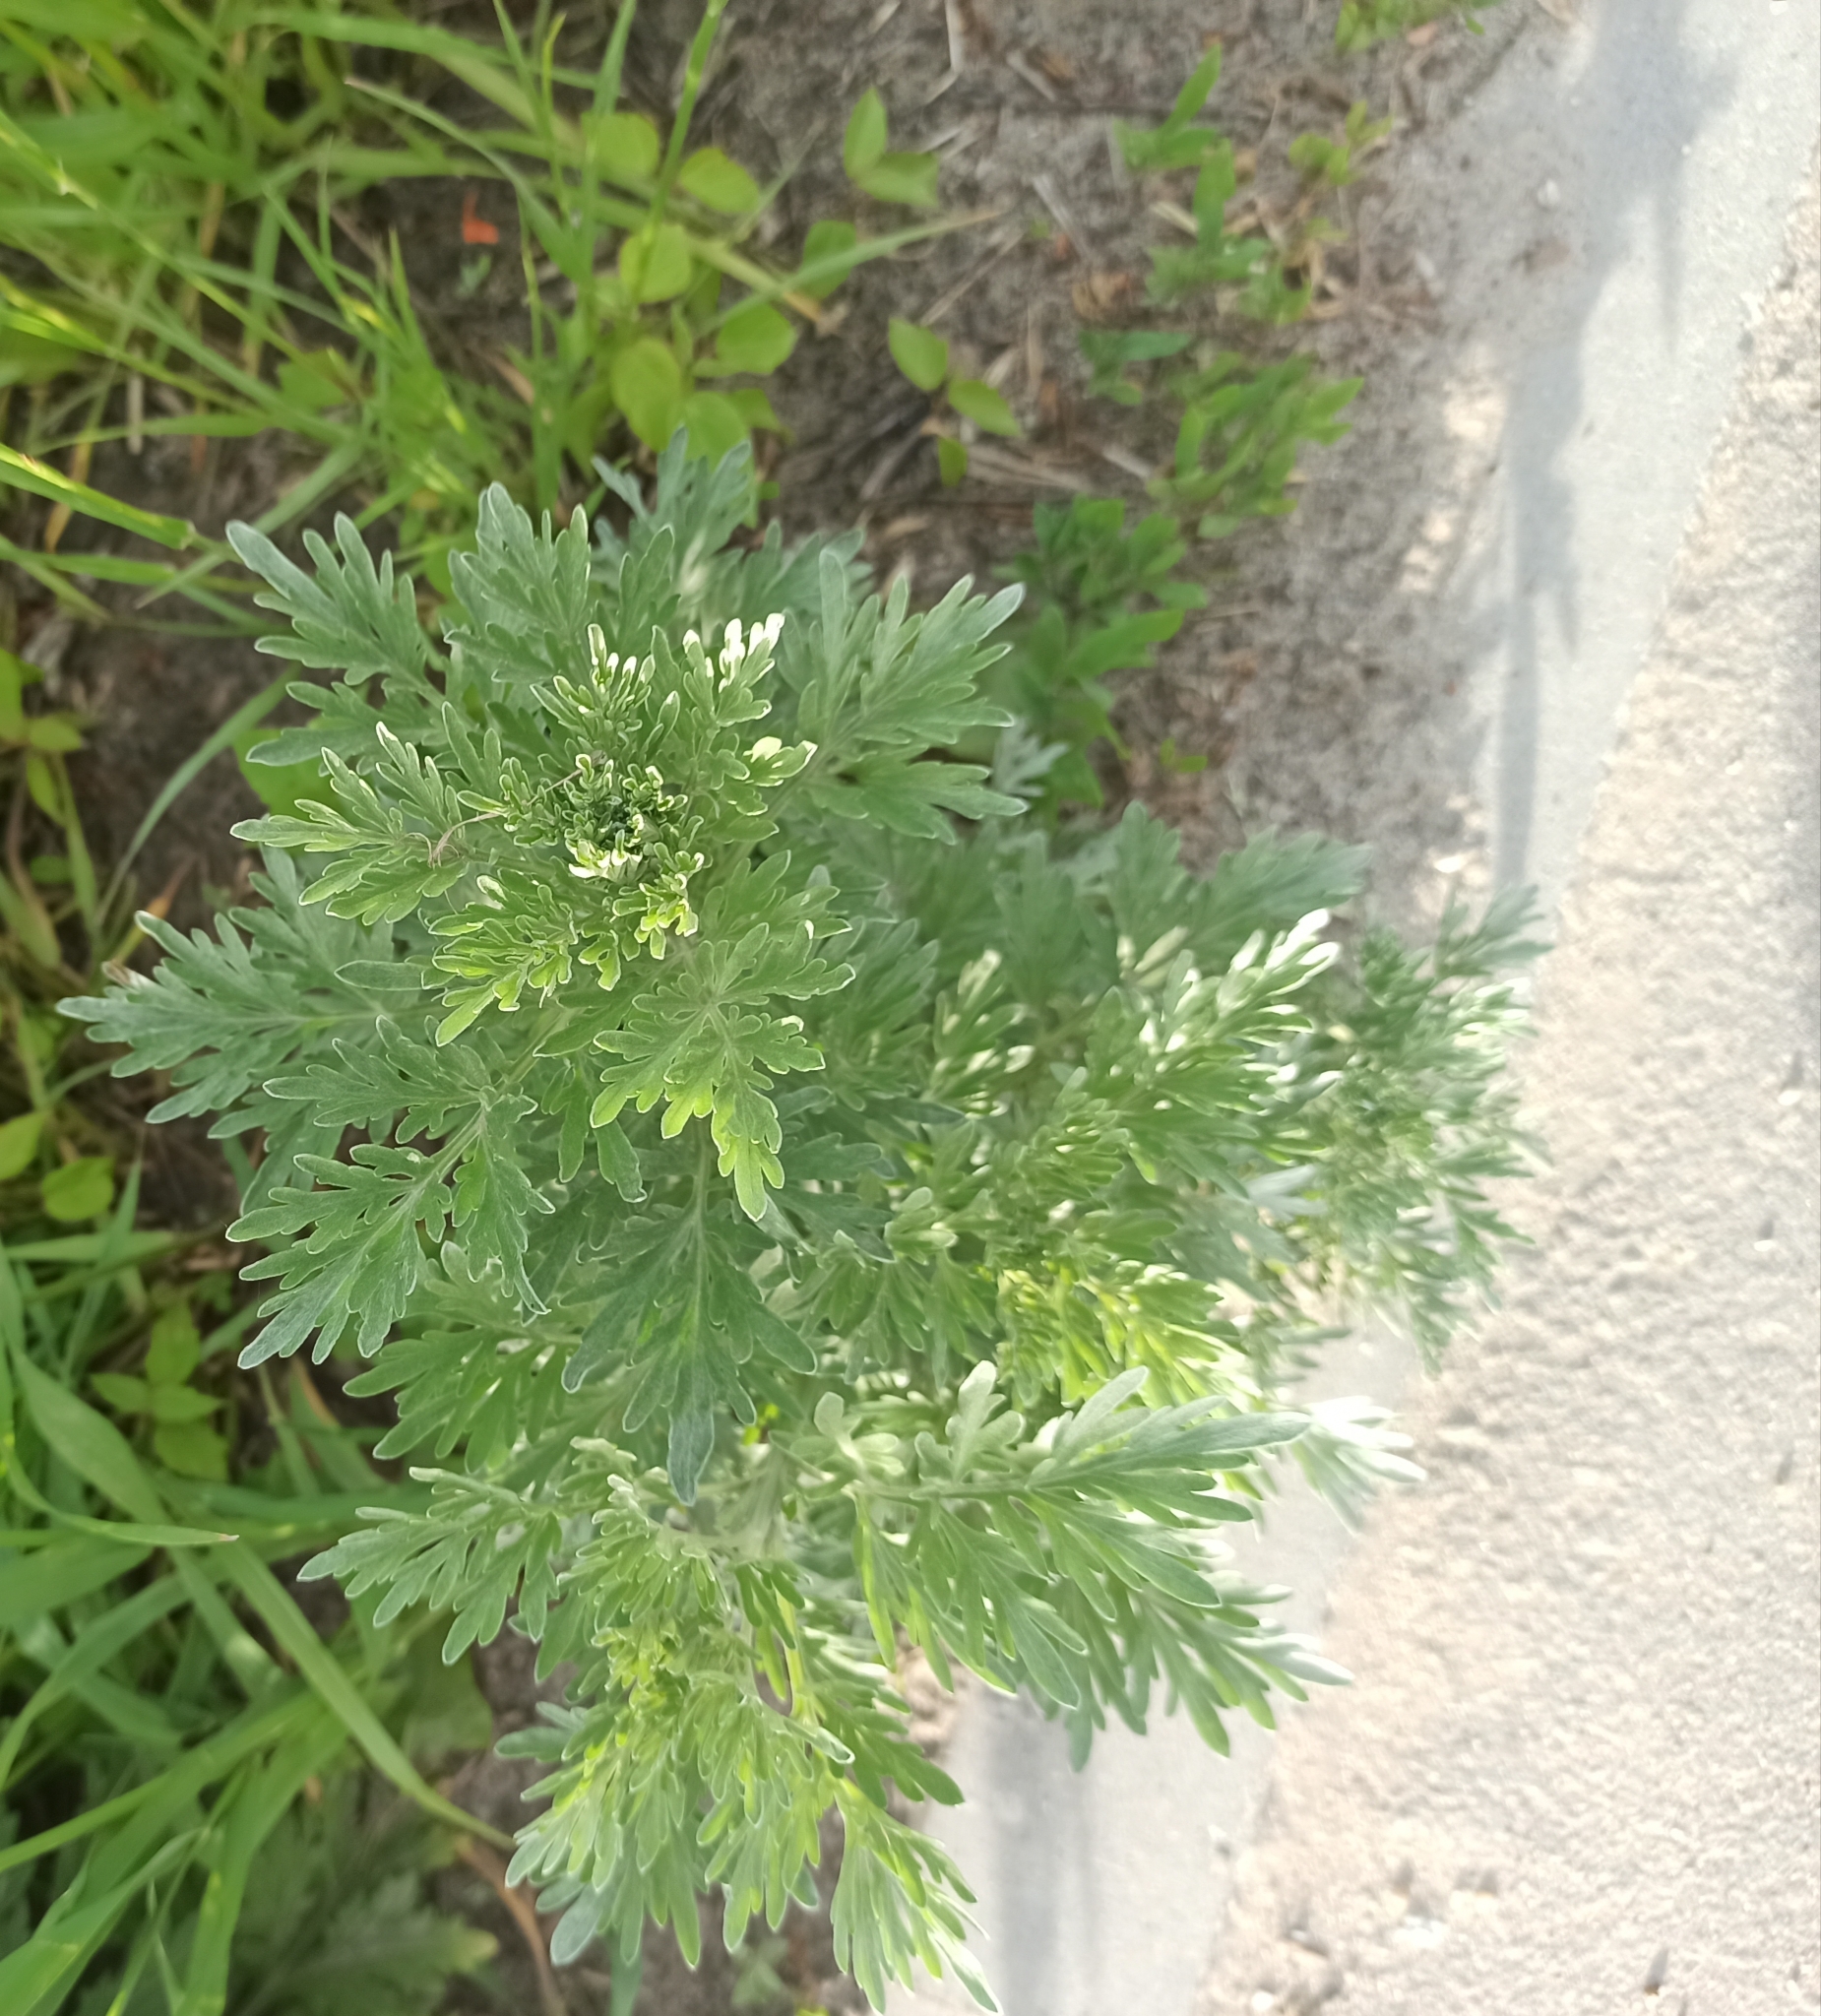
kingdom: Plantae
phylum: Tracheophyta
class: Magnoliopsida
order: Asterales
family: Asteraceae
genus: Artemisia
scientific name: Artemisia absinthium
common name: Wormwood
